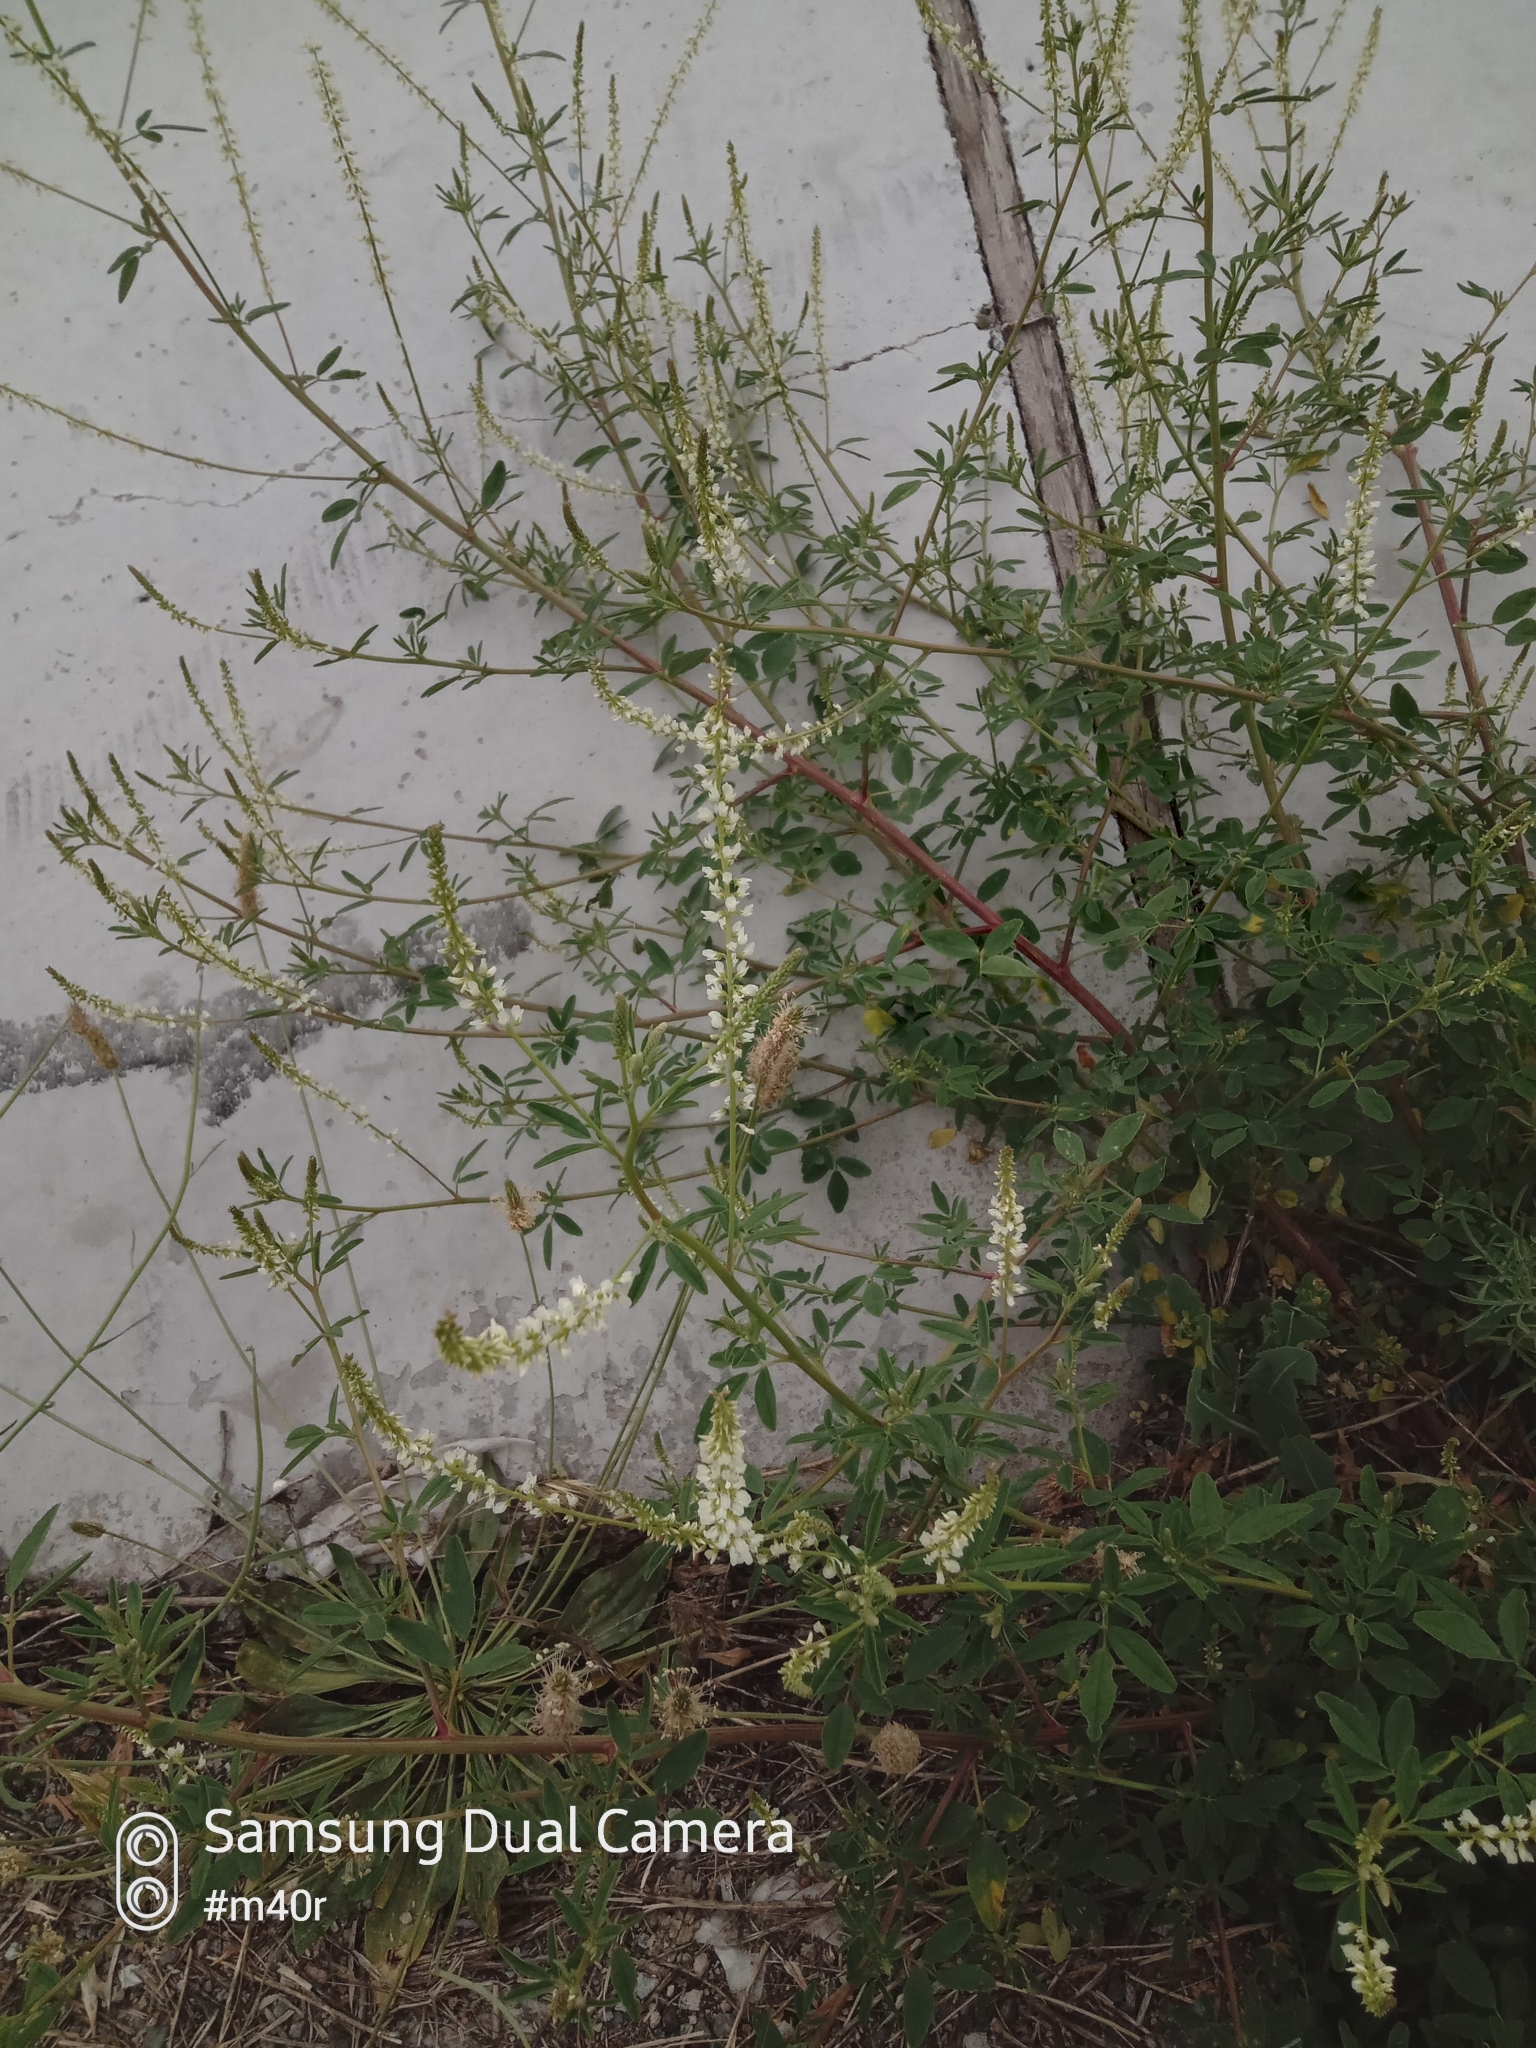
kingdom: Plantae
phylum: Tracheophyta
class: Magnoliopsida
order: Fabales
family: Fabaceae
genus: Melilotus
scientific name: Melilotus albus
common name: White melilot
